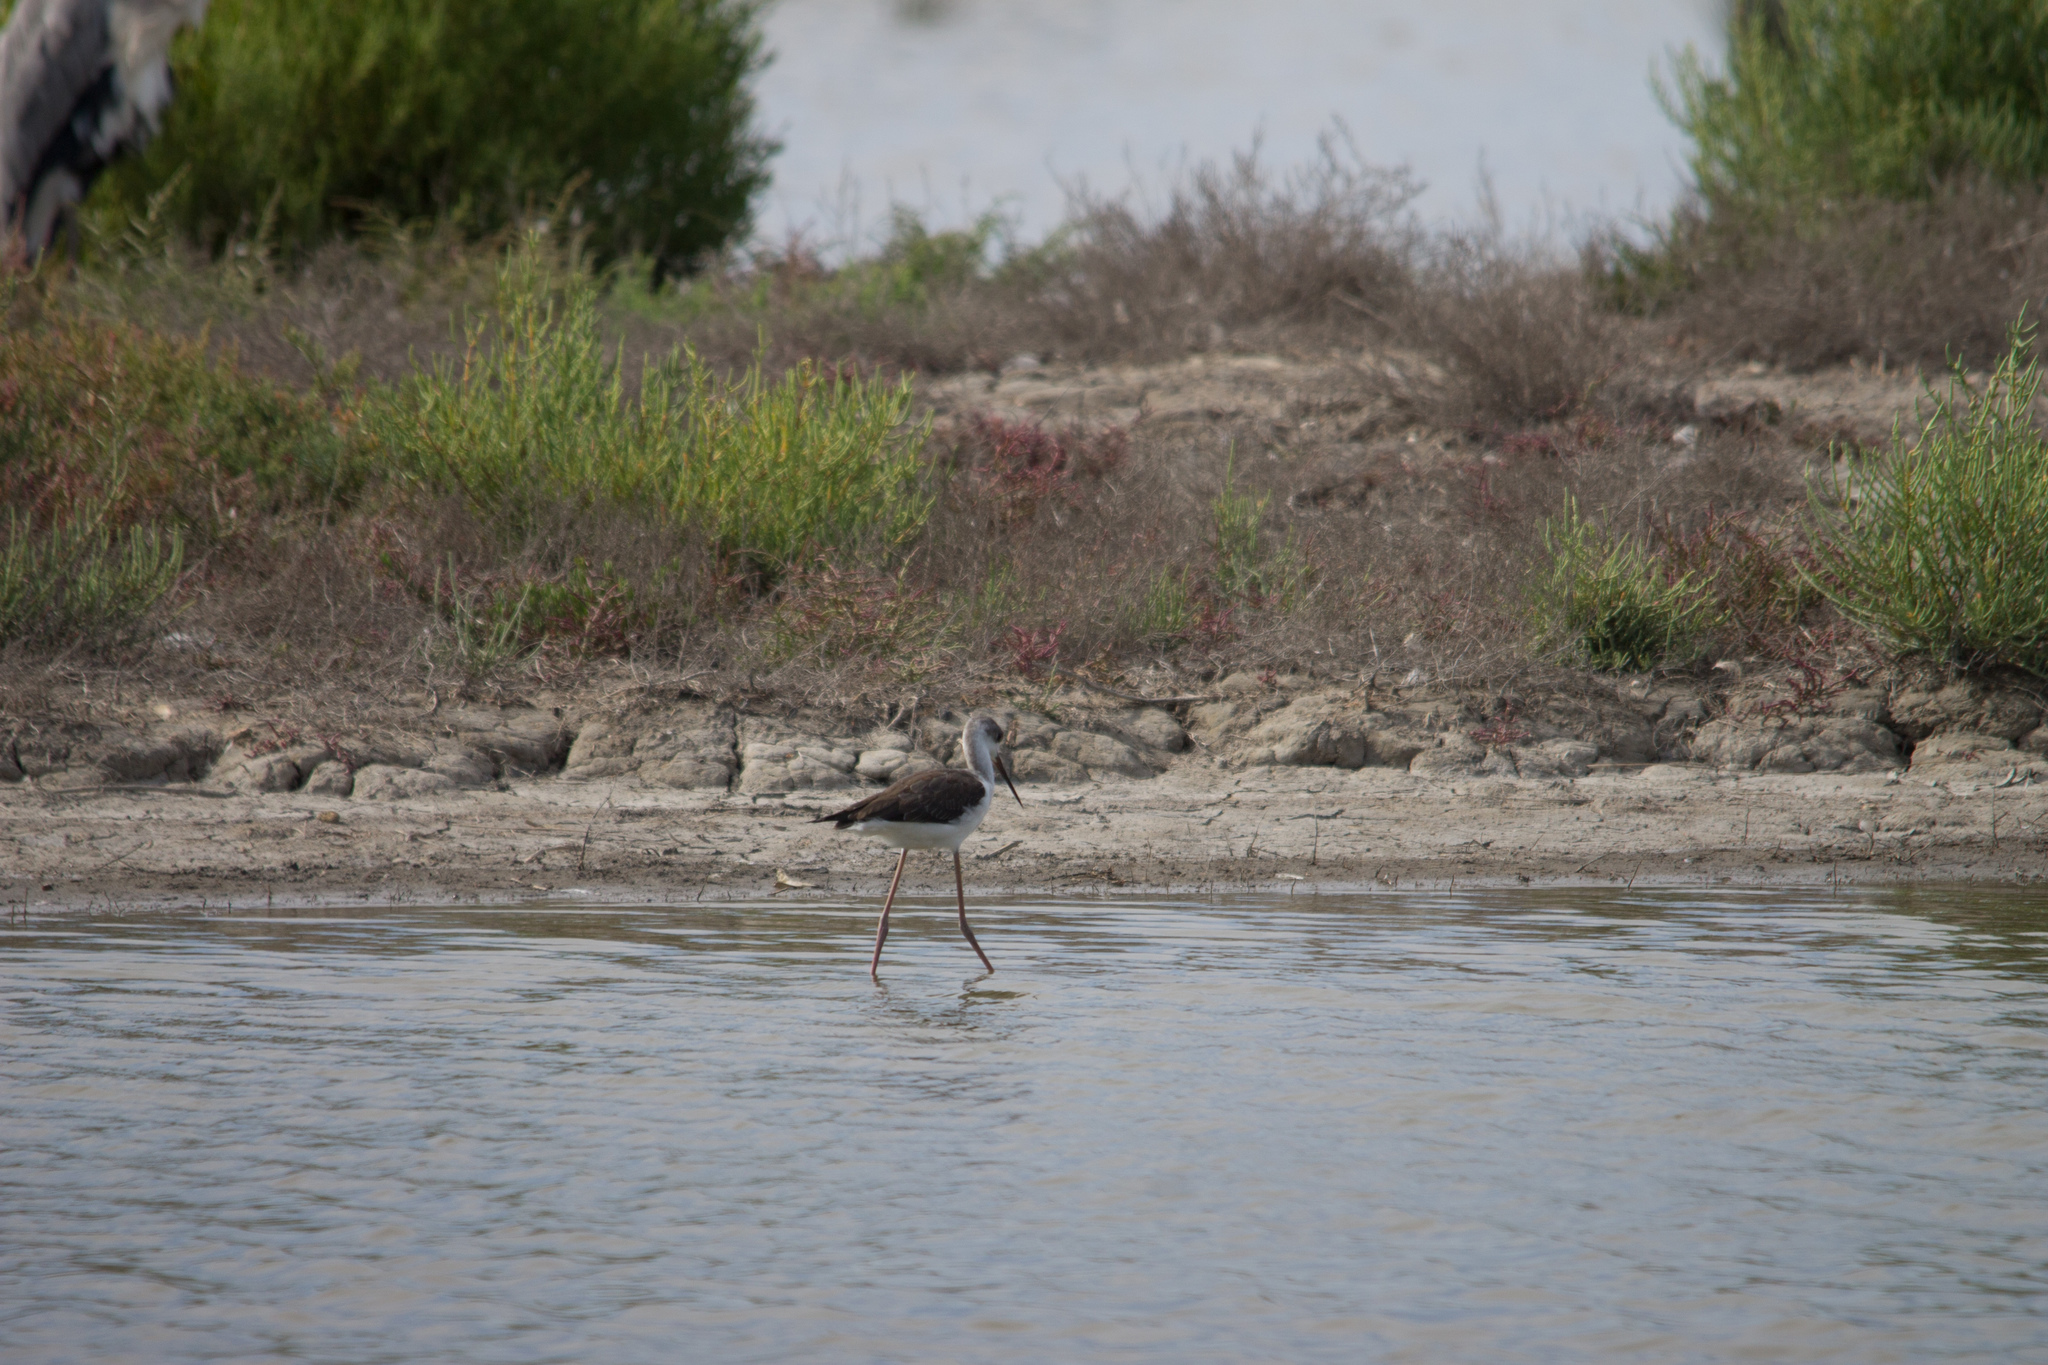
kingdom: Animalia
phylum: Chordata
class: Aves
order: Charadriiformes
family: Recurvirostridae
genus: Himantopus
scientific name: Himantopus himantopus
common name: Black-winged stilt
